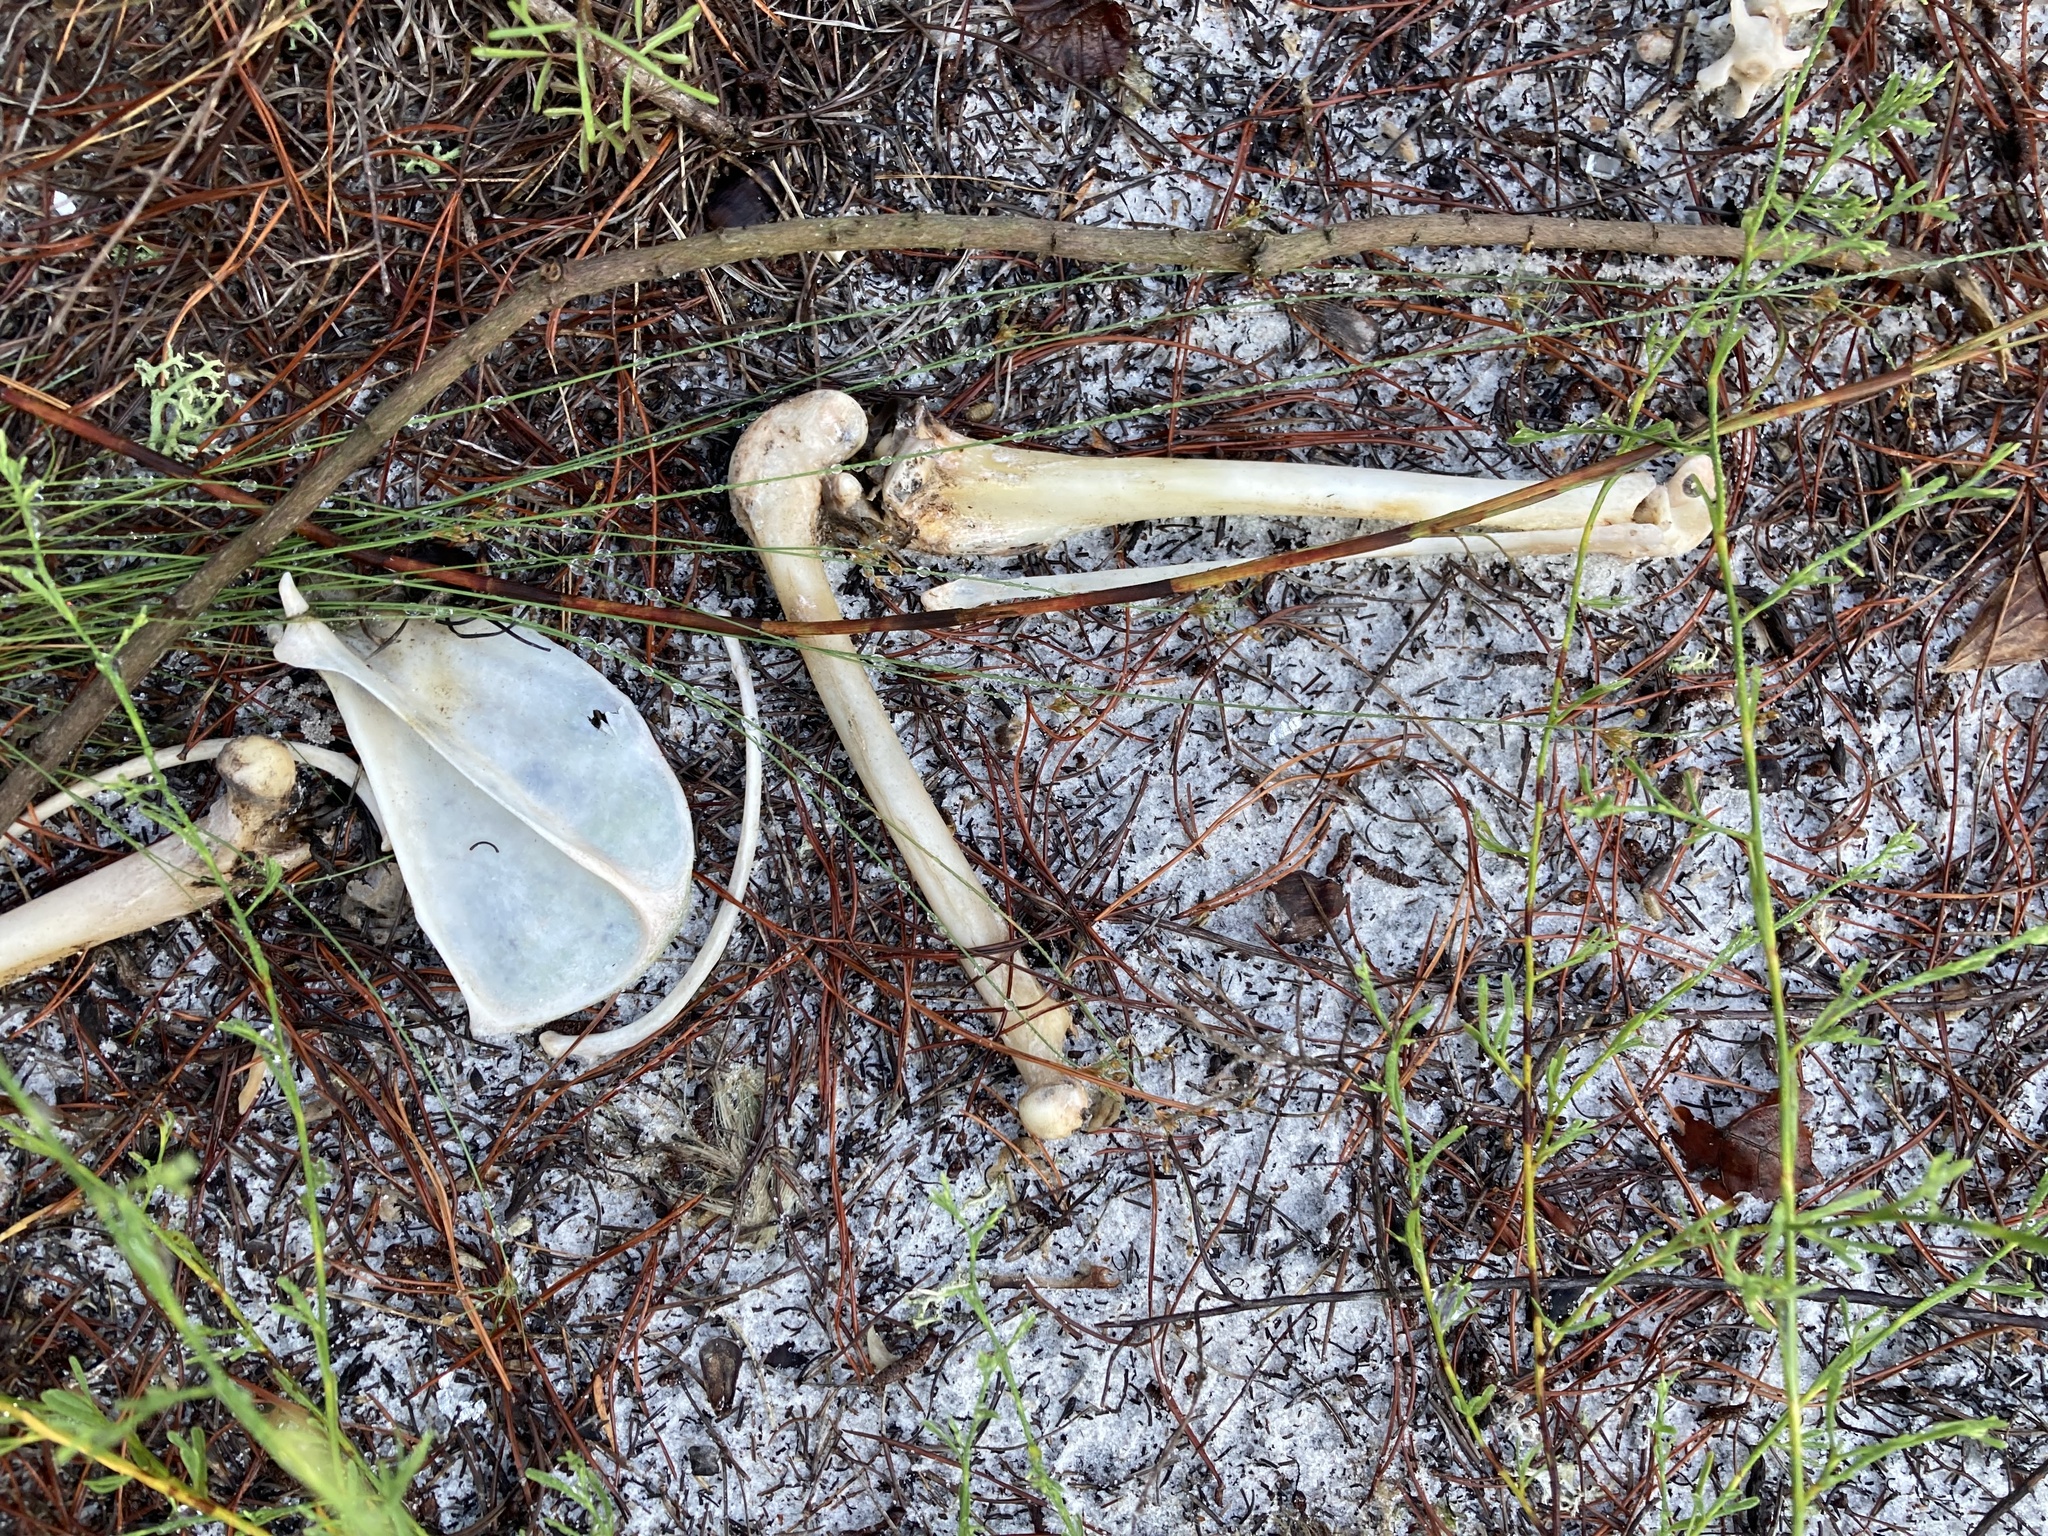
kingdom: Animalia
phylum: Chordata
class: Mammalia
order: Carnivora
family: Canidae
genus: Urocyon
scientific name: Urocyon cinereoargenteus
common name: Gray fox
